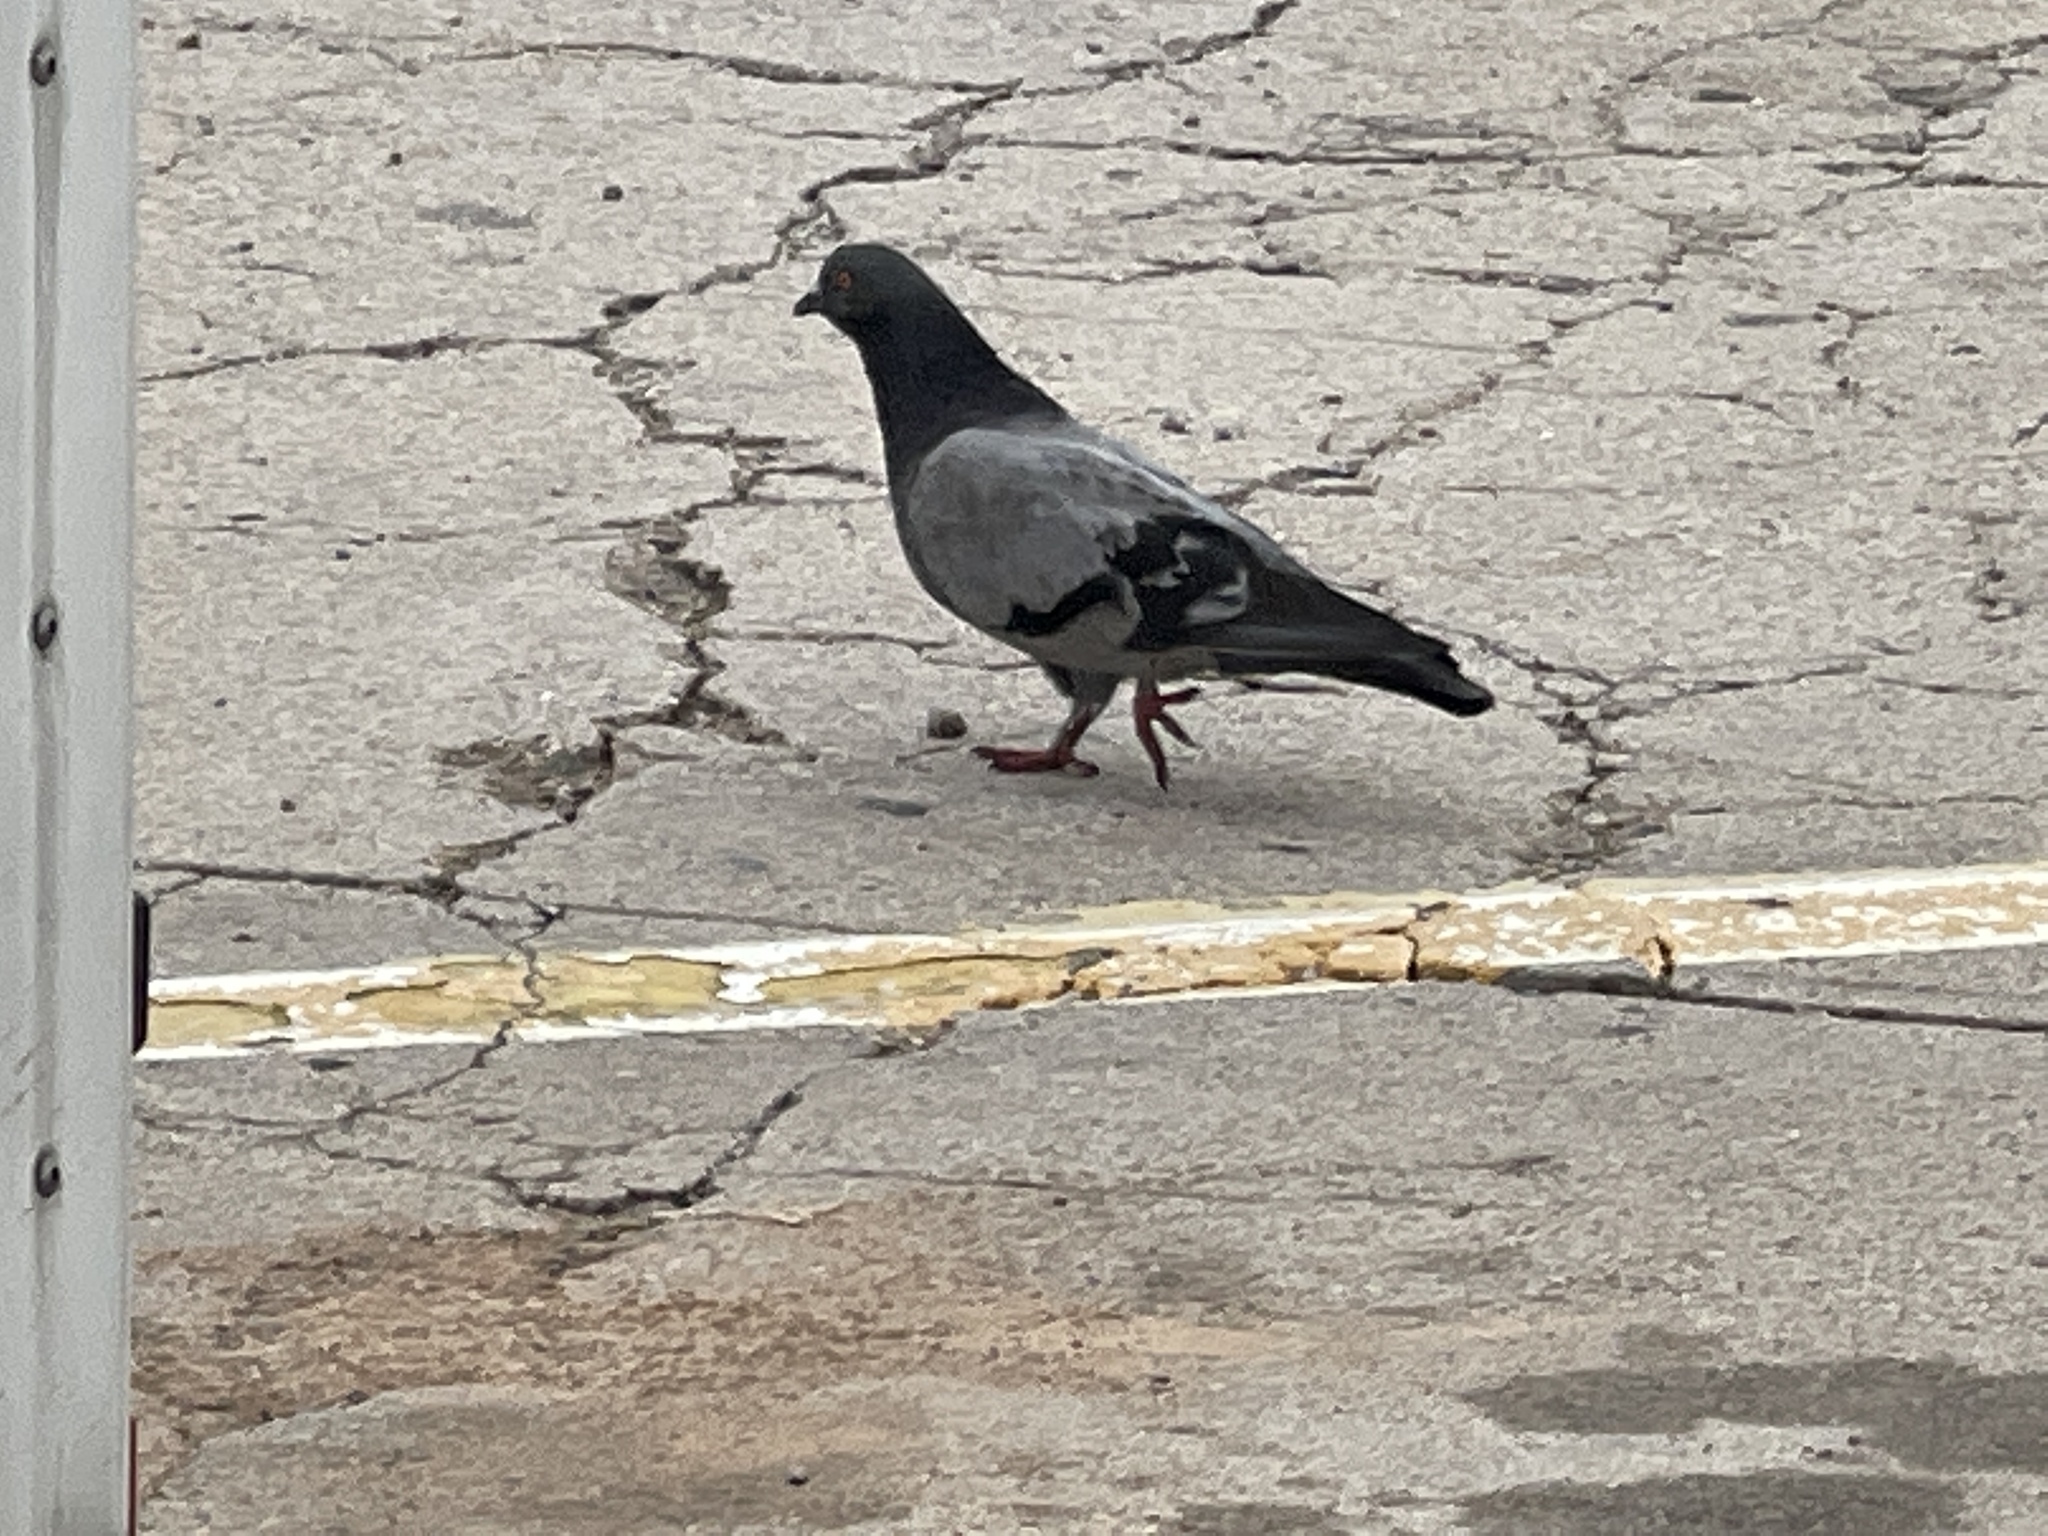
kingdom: Animalia
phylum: Chordata
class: Aves
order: Columbiformes
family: Columbidae
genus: Columba
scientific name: Columba livia
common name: Rock pigeon
